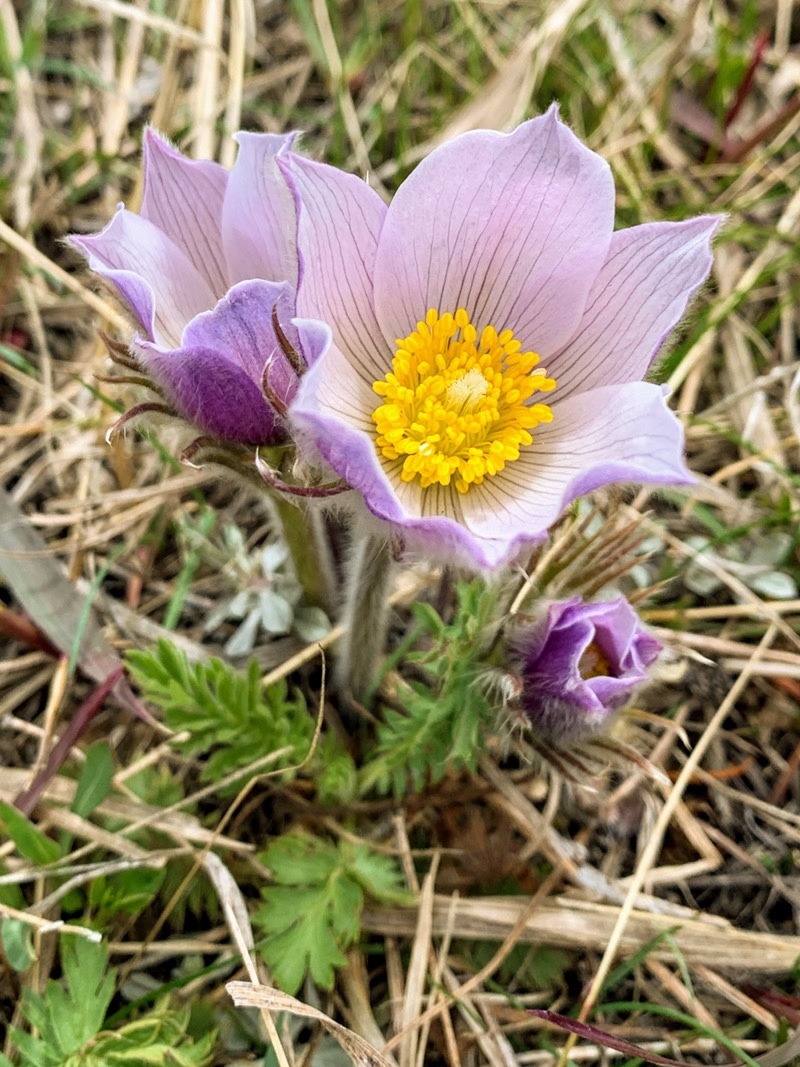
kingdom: Plantae
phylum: Tracheophyta
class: Magnoliopsida
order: Ranunculales
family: Ranunculaceae
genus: Pulsatilla
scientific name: Pulsatilla nuttalliana
